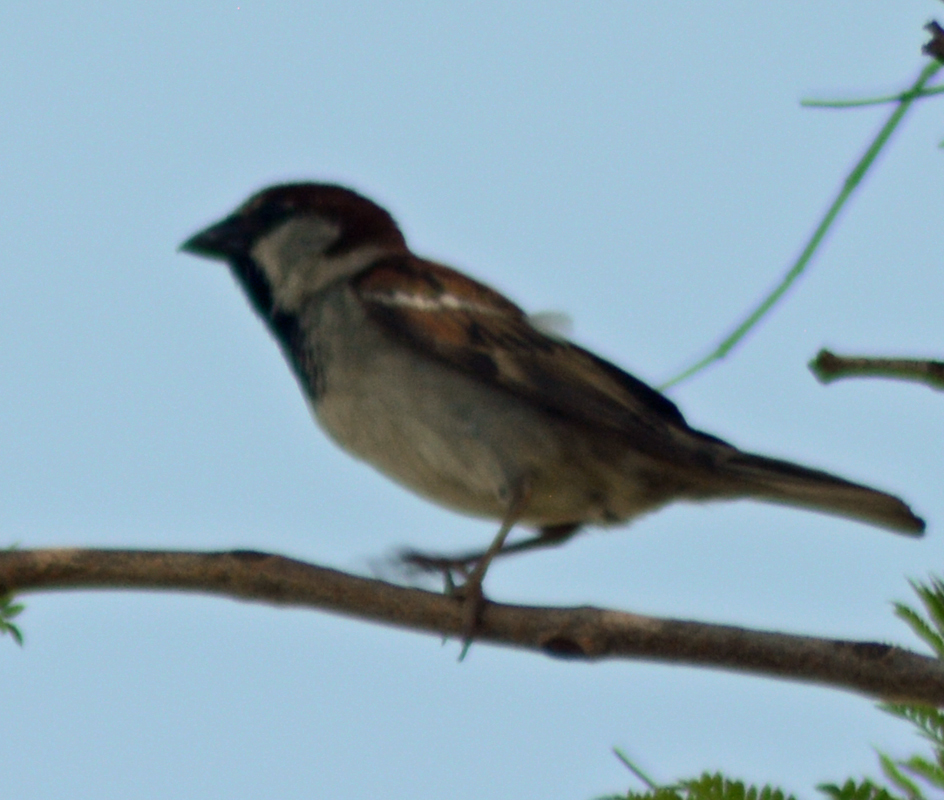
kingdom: Animalia
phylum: Chordata
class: Aves
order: Passeriformes
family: Passeridae
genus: Passer
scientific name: Passer domesticus
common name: House sparrow
